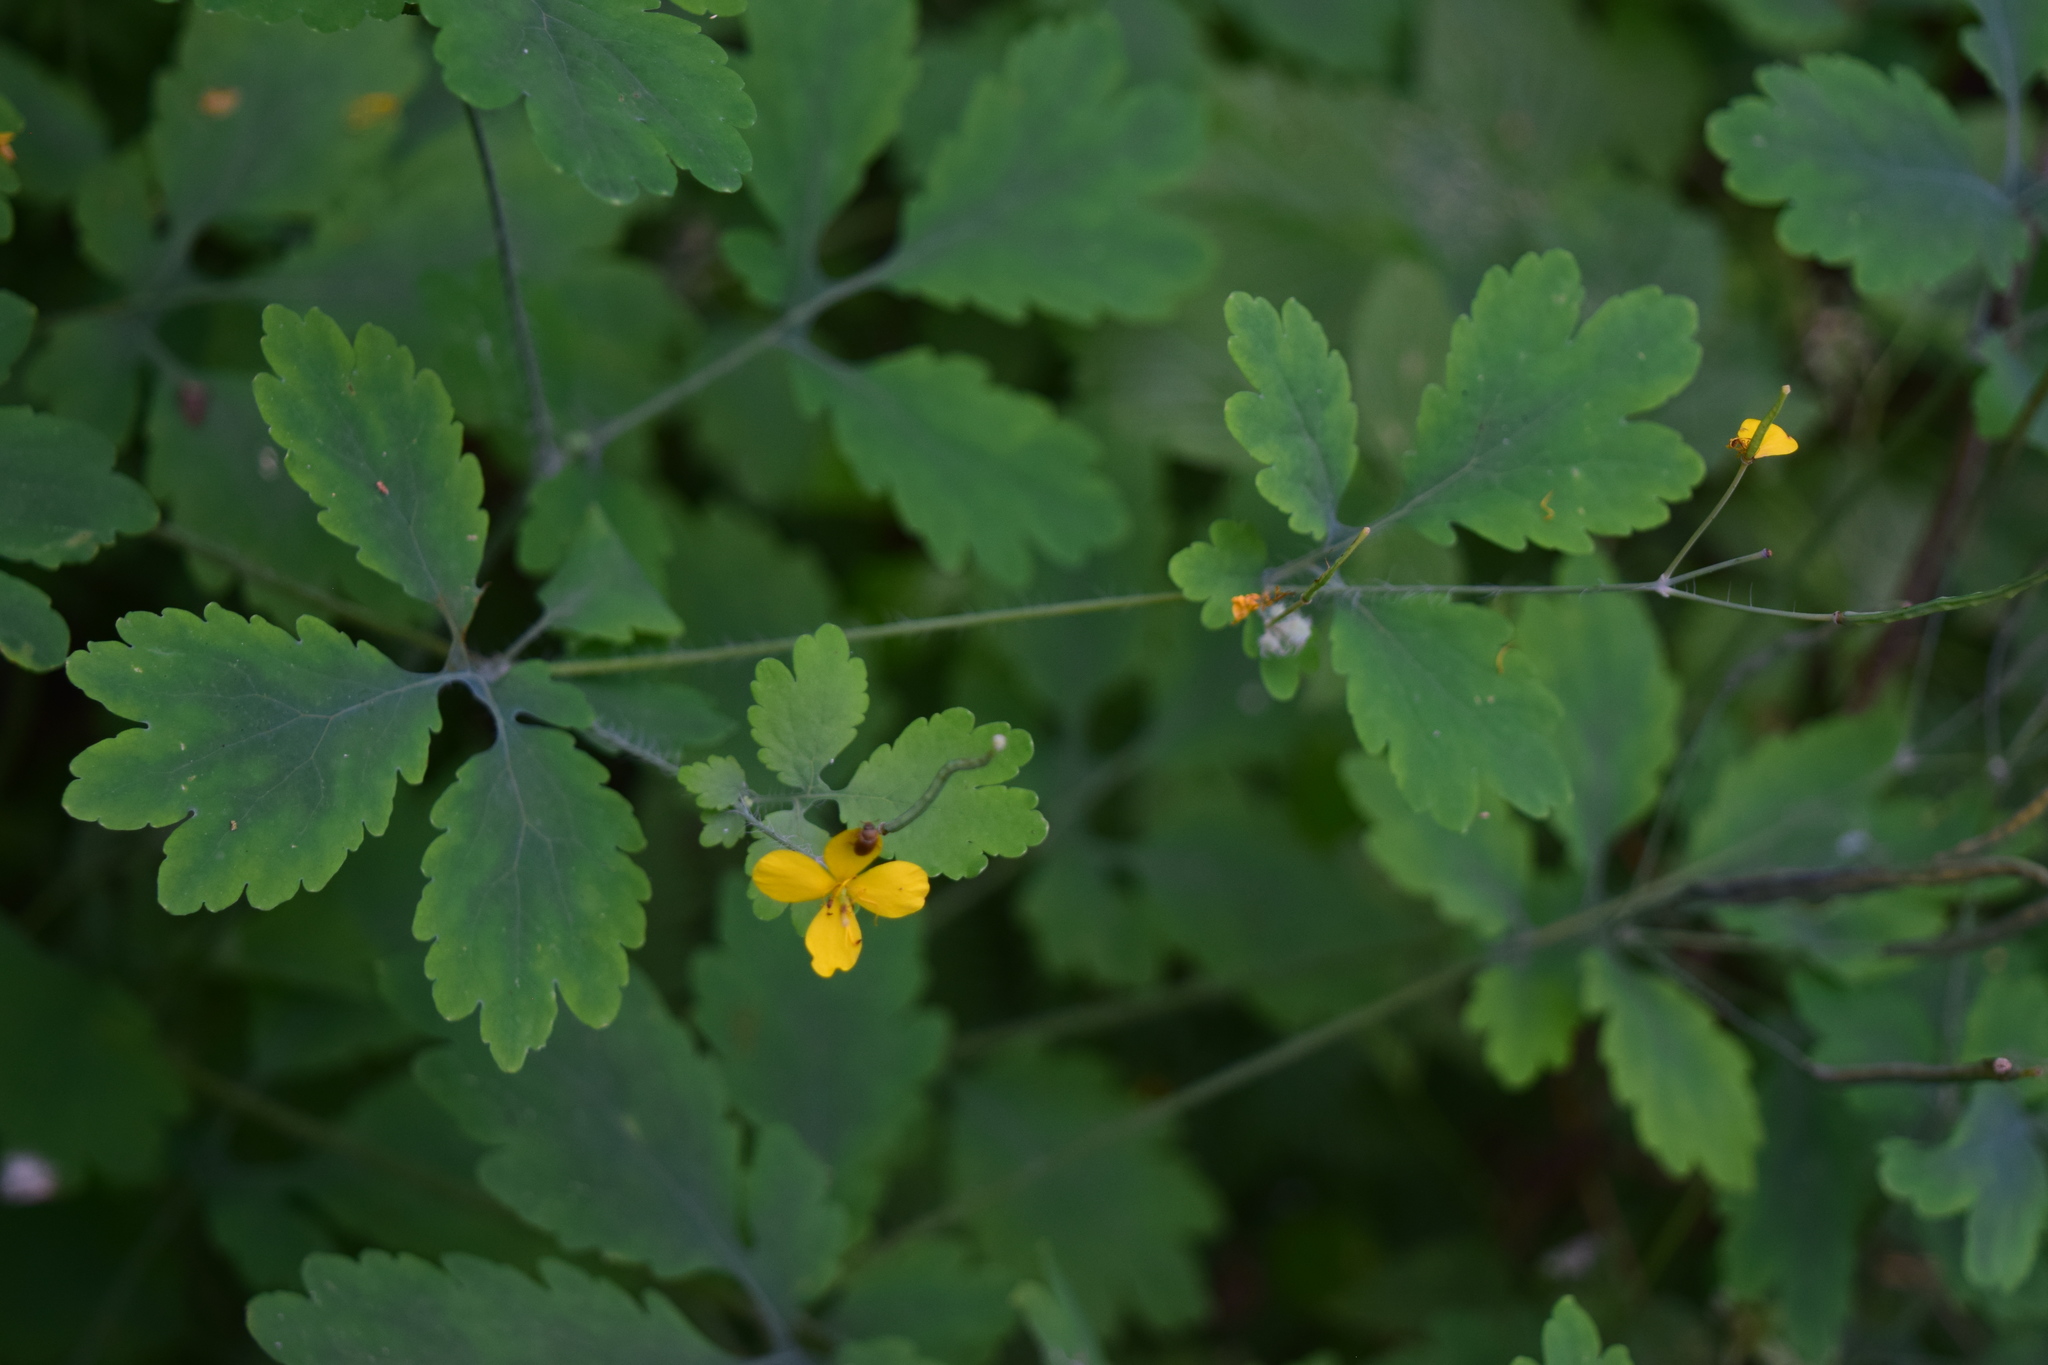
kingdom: Plantae
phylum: Tracheophyta
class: Magnoliopsida
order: Ranunculales
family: Papaveraceae
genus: Chelidonium
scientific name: Chelidonium majus
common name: Greater celandine
